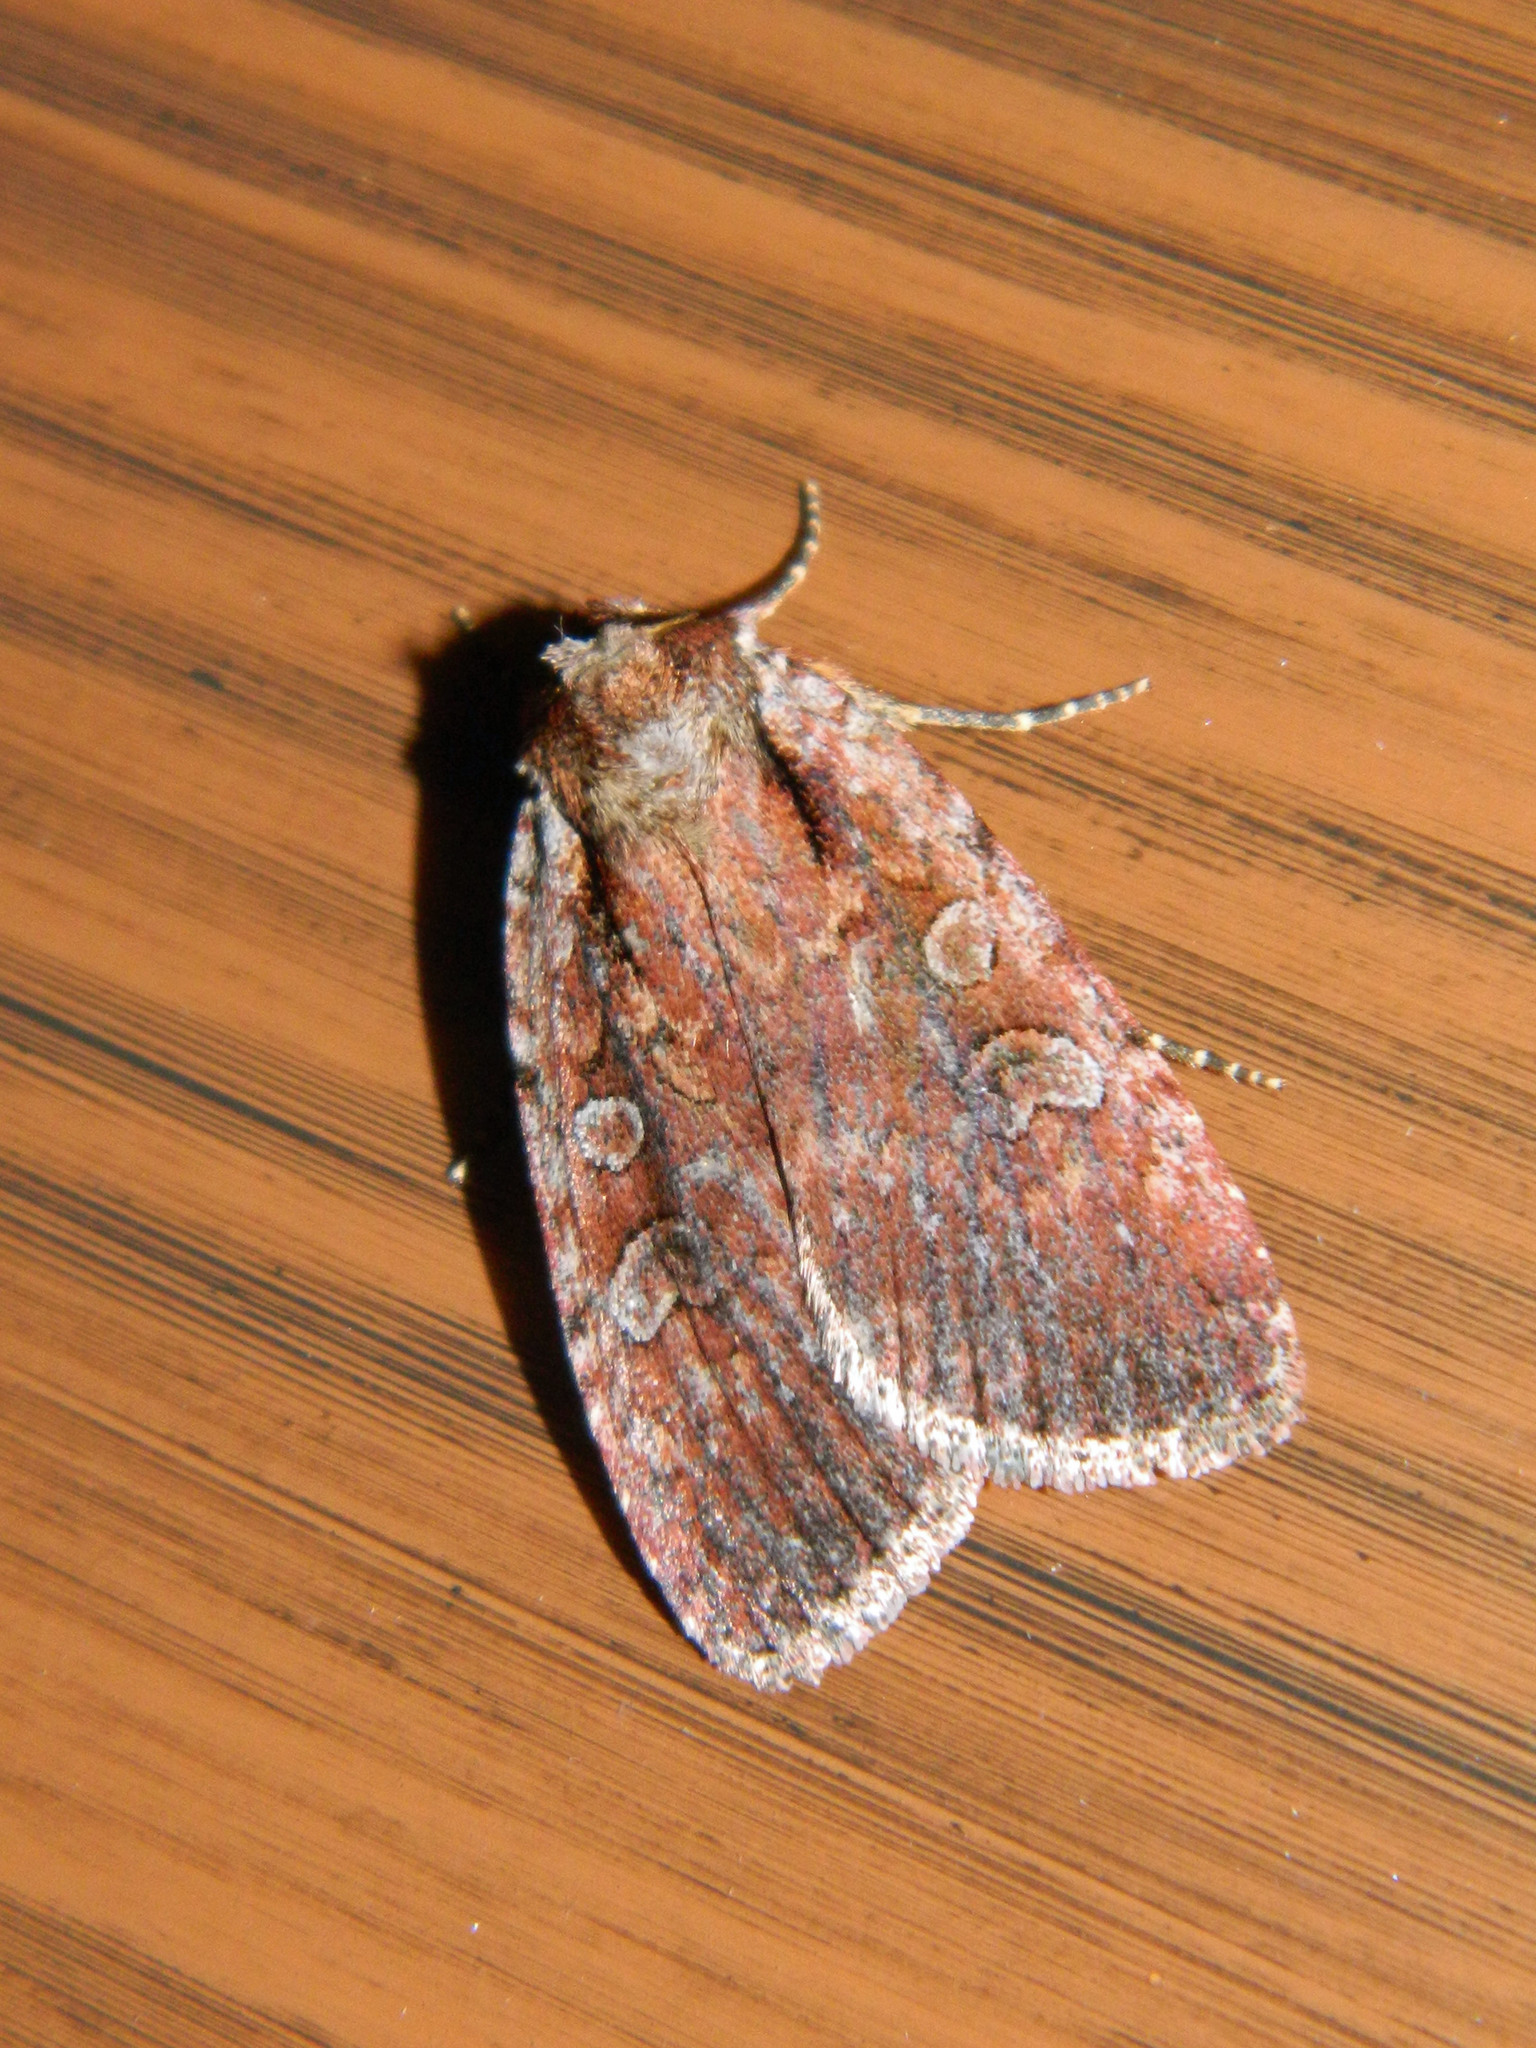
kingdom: Animalia
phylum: Arthropoda
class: Insecta
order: Lepidoptera
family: Noctuidae
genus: Eueretagrotis
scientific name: Eueretagrotis attentus
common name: Attentive dart
